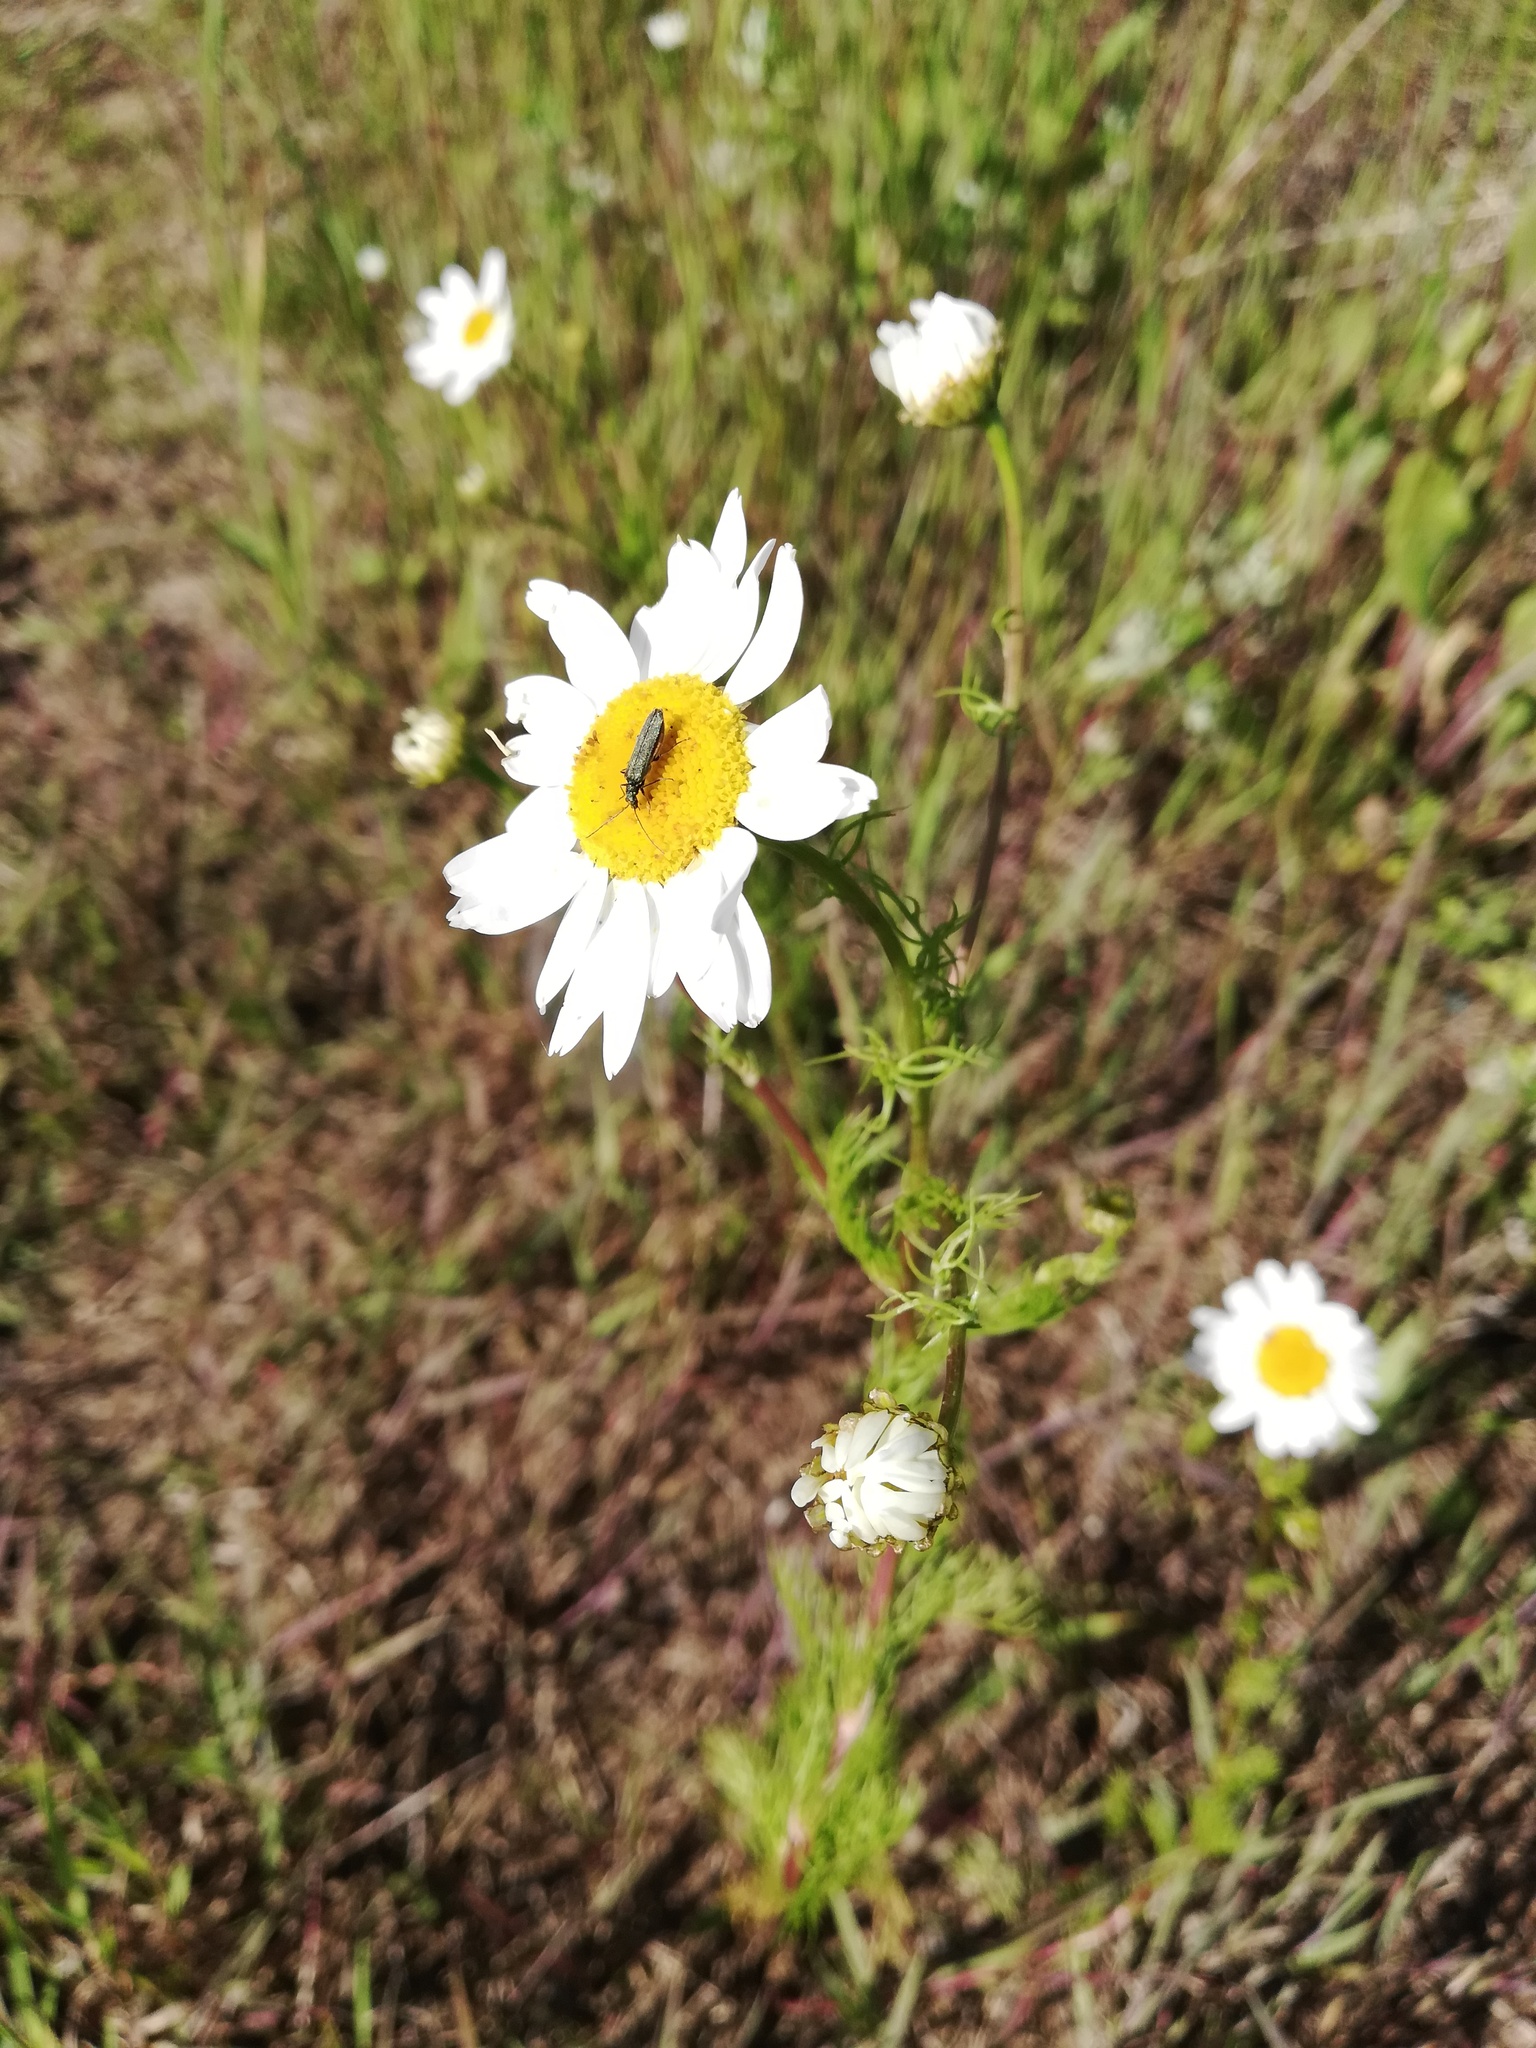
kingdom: Plantae
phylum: Tracheophyta
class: Magnoliopsida
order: Asterales
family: Asteraceae
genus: Tripleurospermum
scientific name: Tripleurospermum inodorum
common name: Scentless mayweed
